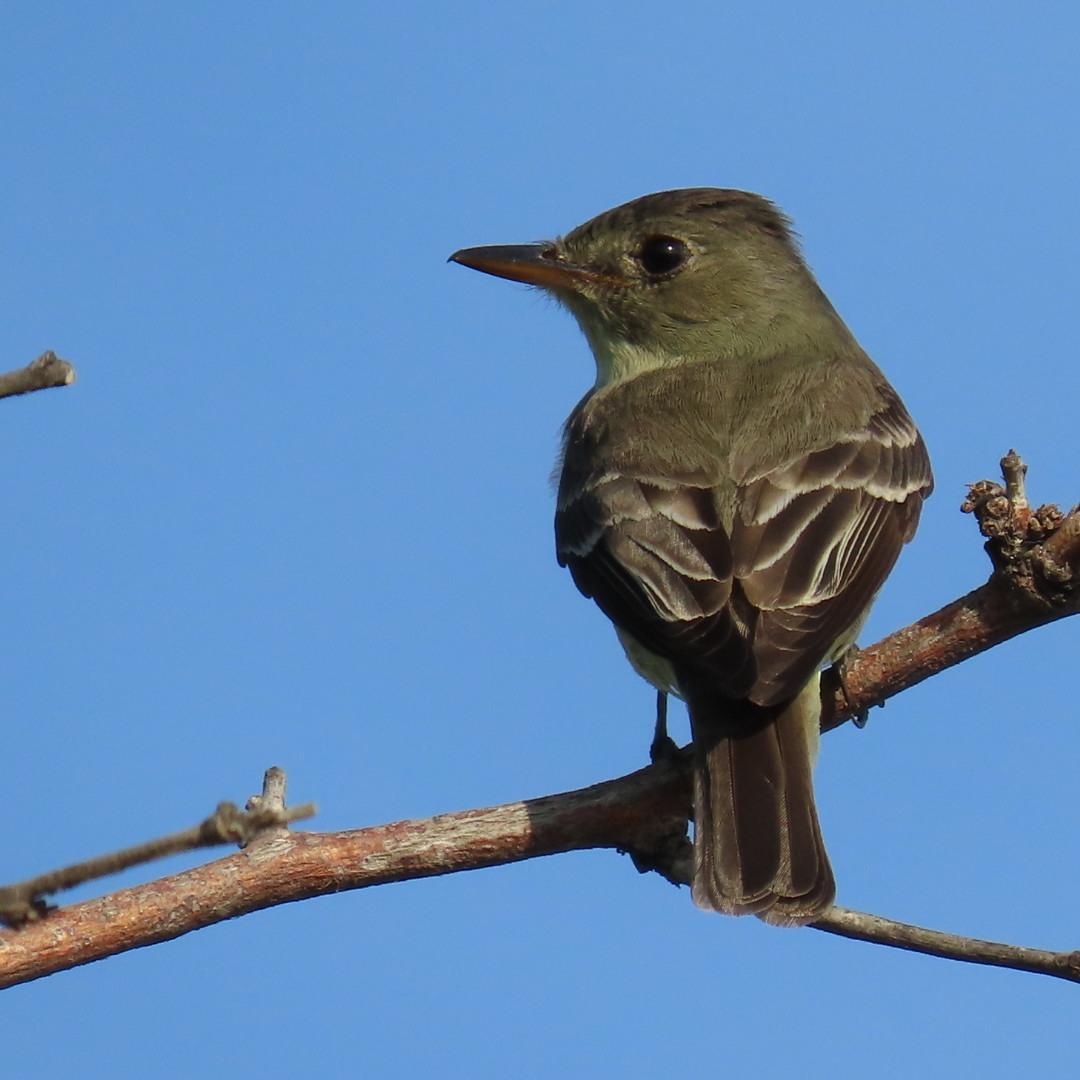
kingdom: Animalia
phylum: Chordata
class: Aves
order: Passeriformes
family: Tyrannidae
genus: Contopus
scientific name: Contopus virens
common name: Eastern wood-pewee
